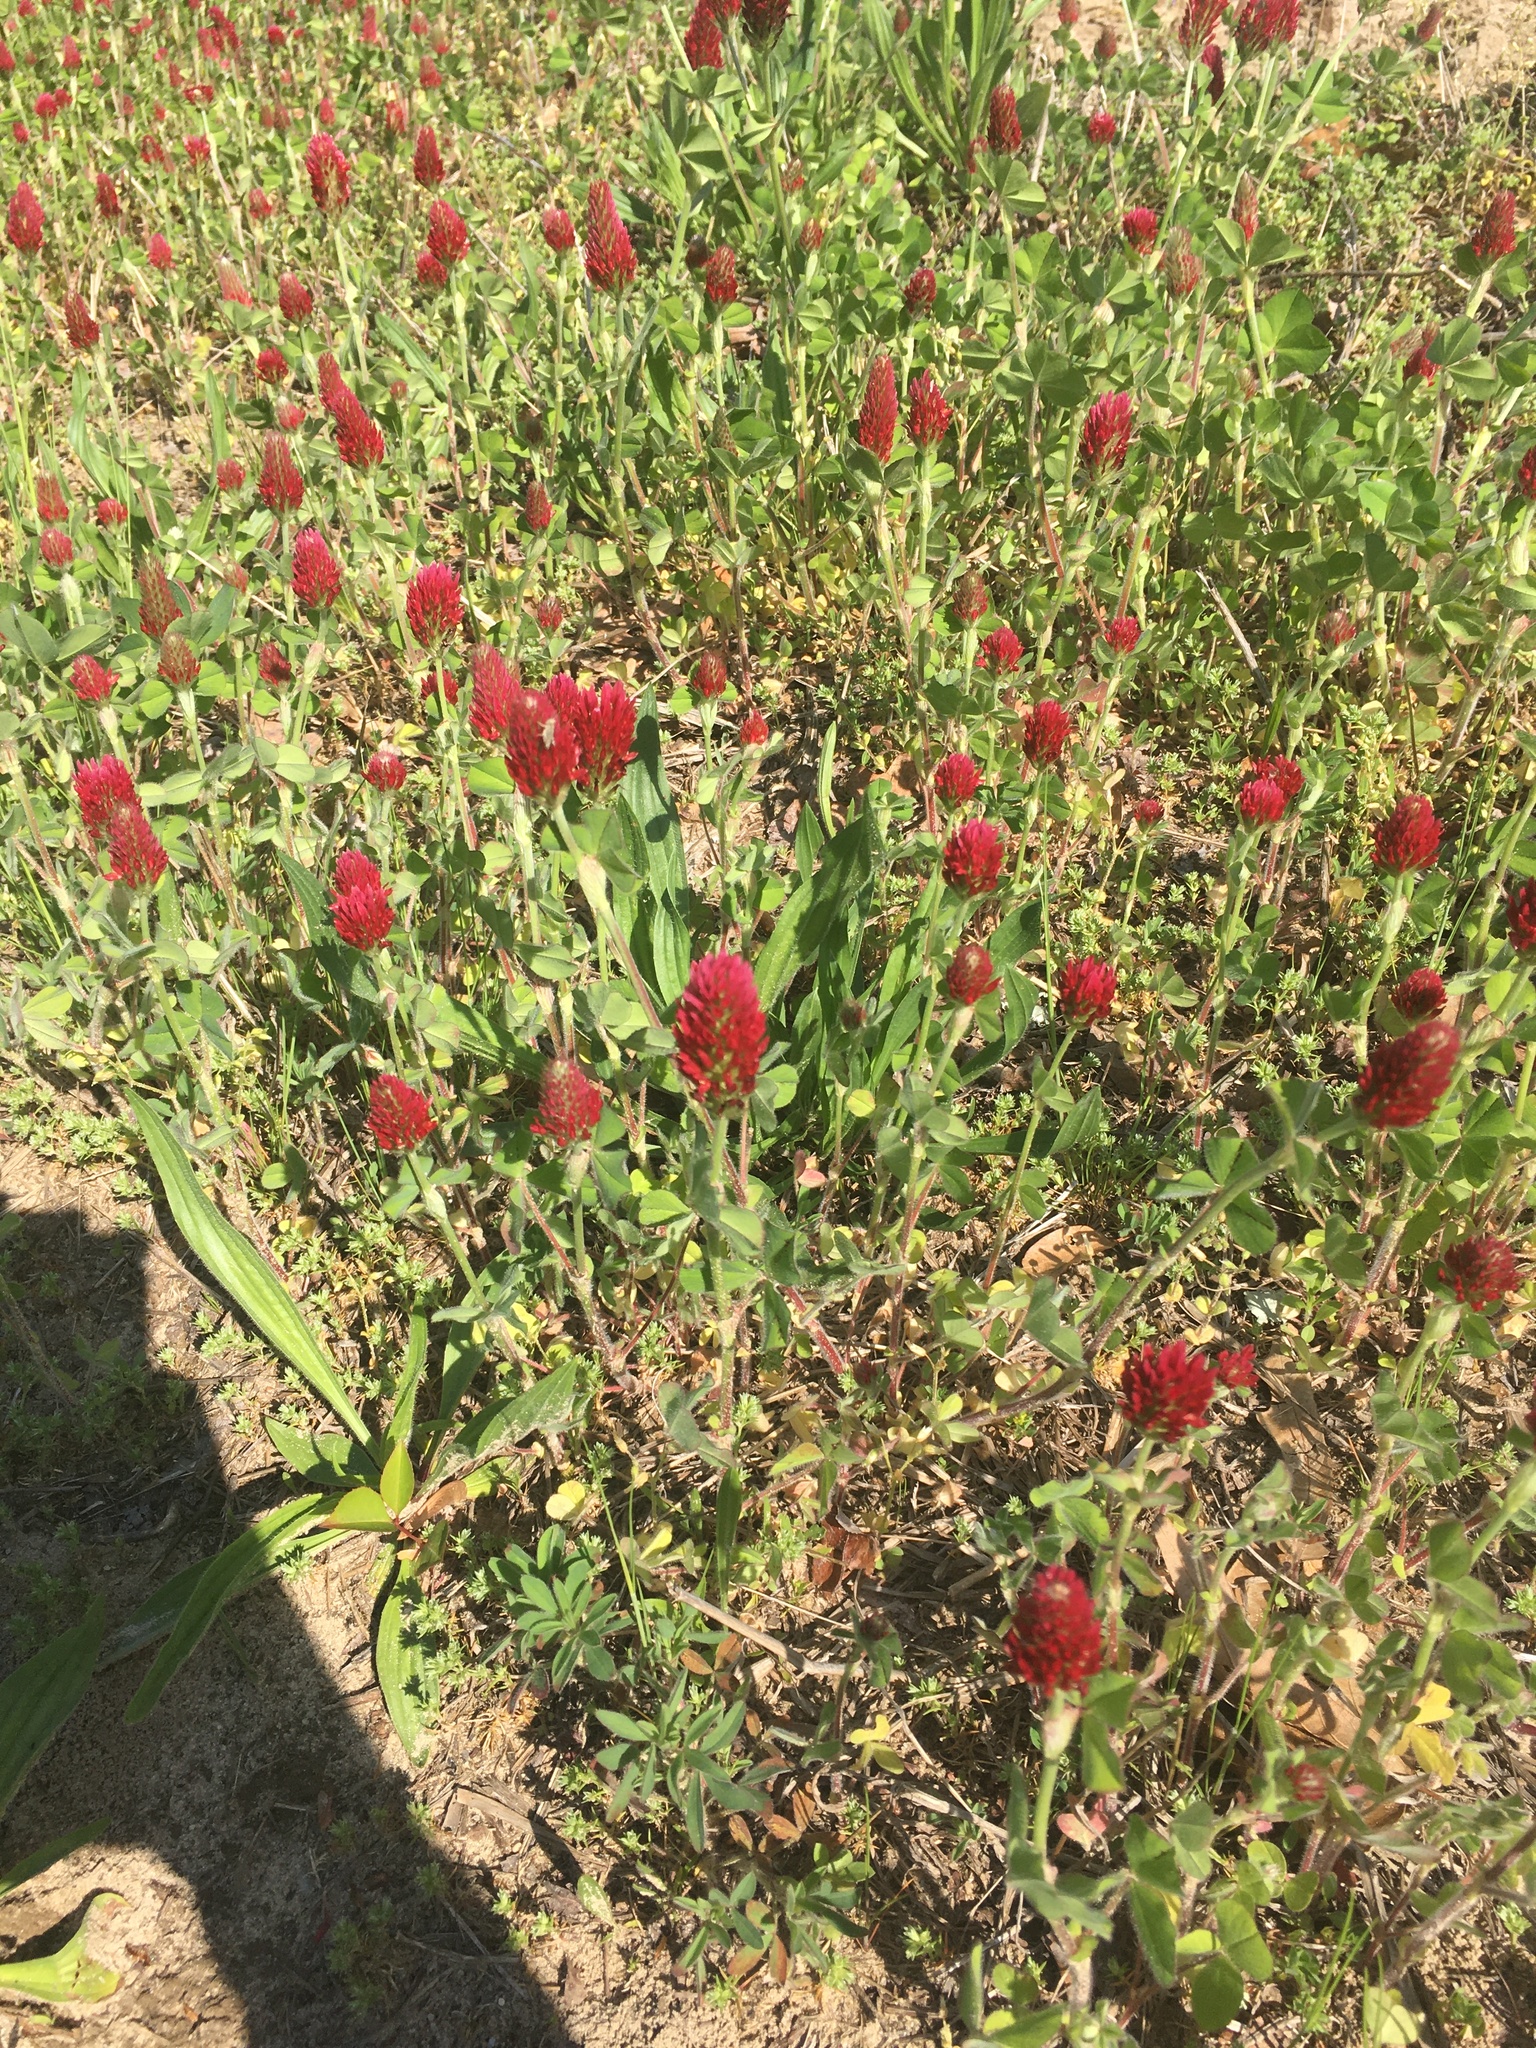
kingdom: Plantae
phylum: Tracheophyta
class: Magnoliopsida
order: Fabales
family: Fabaceae
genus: Trifolium
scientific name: Trifolium incarnatum
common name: Crimson clover
